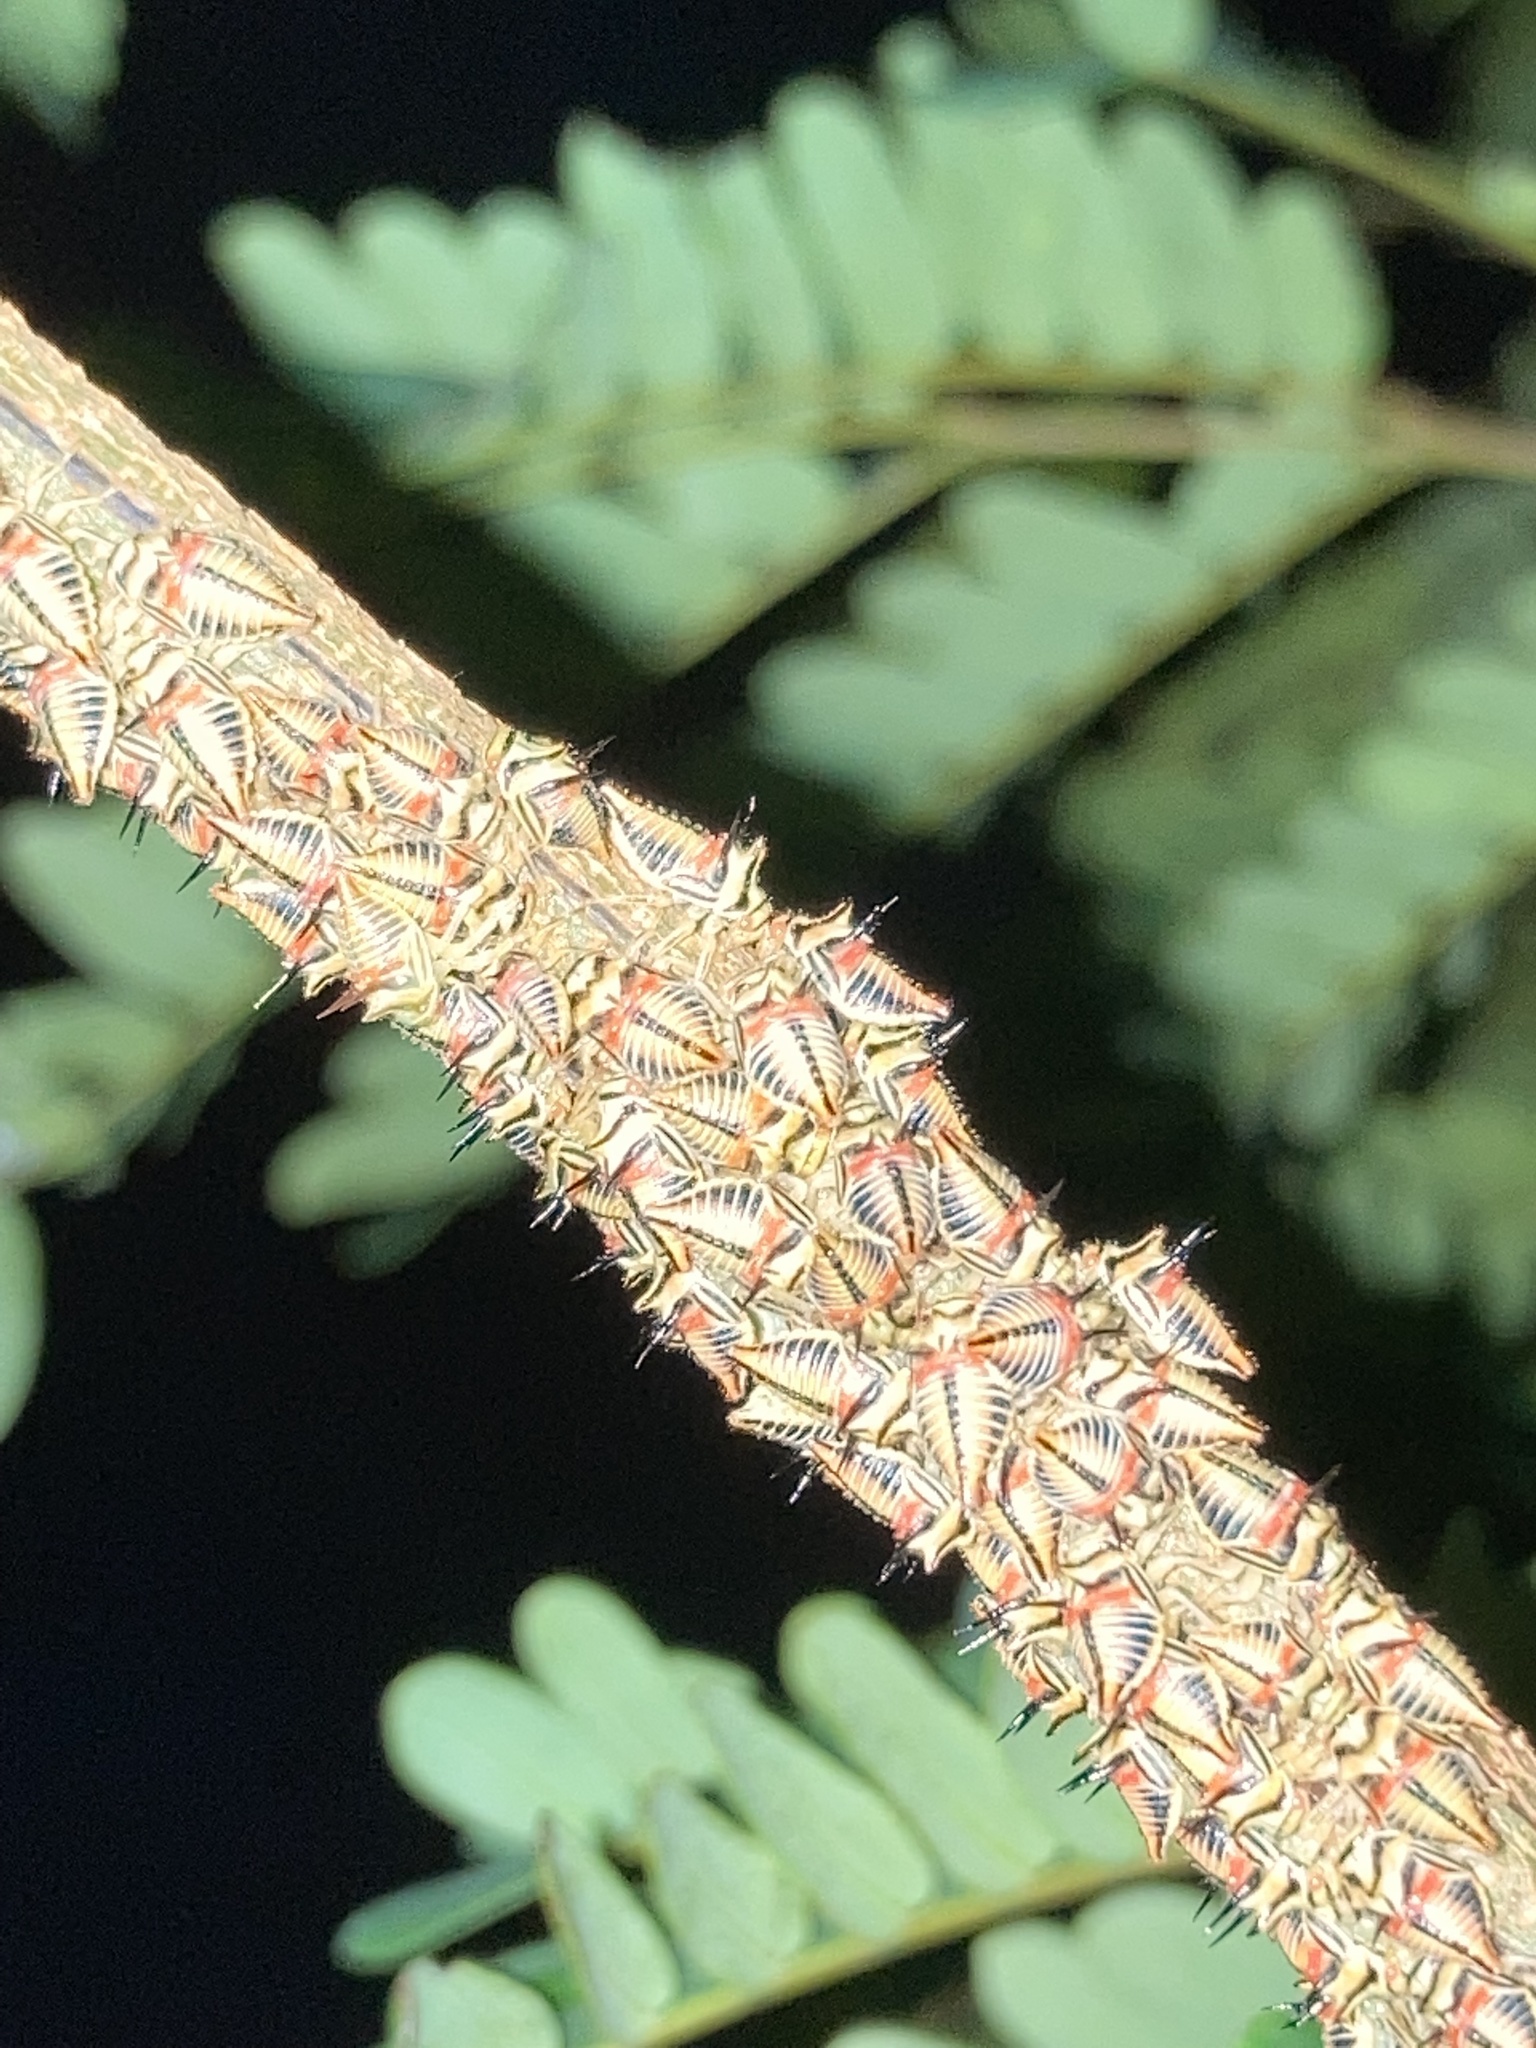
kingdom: Animalia
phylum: Arthropoda
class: Insecta
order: Hemiptera
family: Membracidae
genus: Umbonia
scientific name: Umbonia crassicornis
